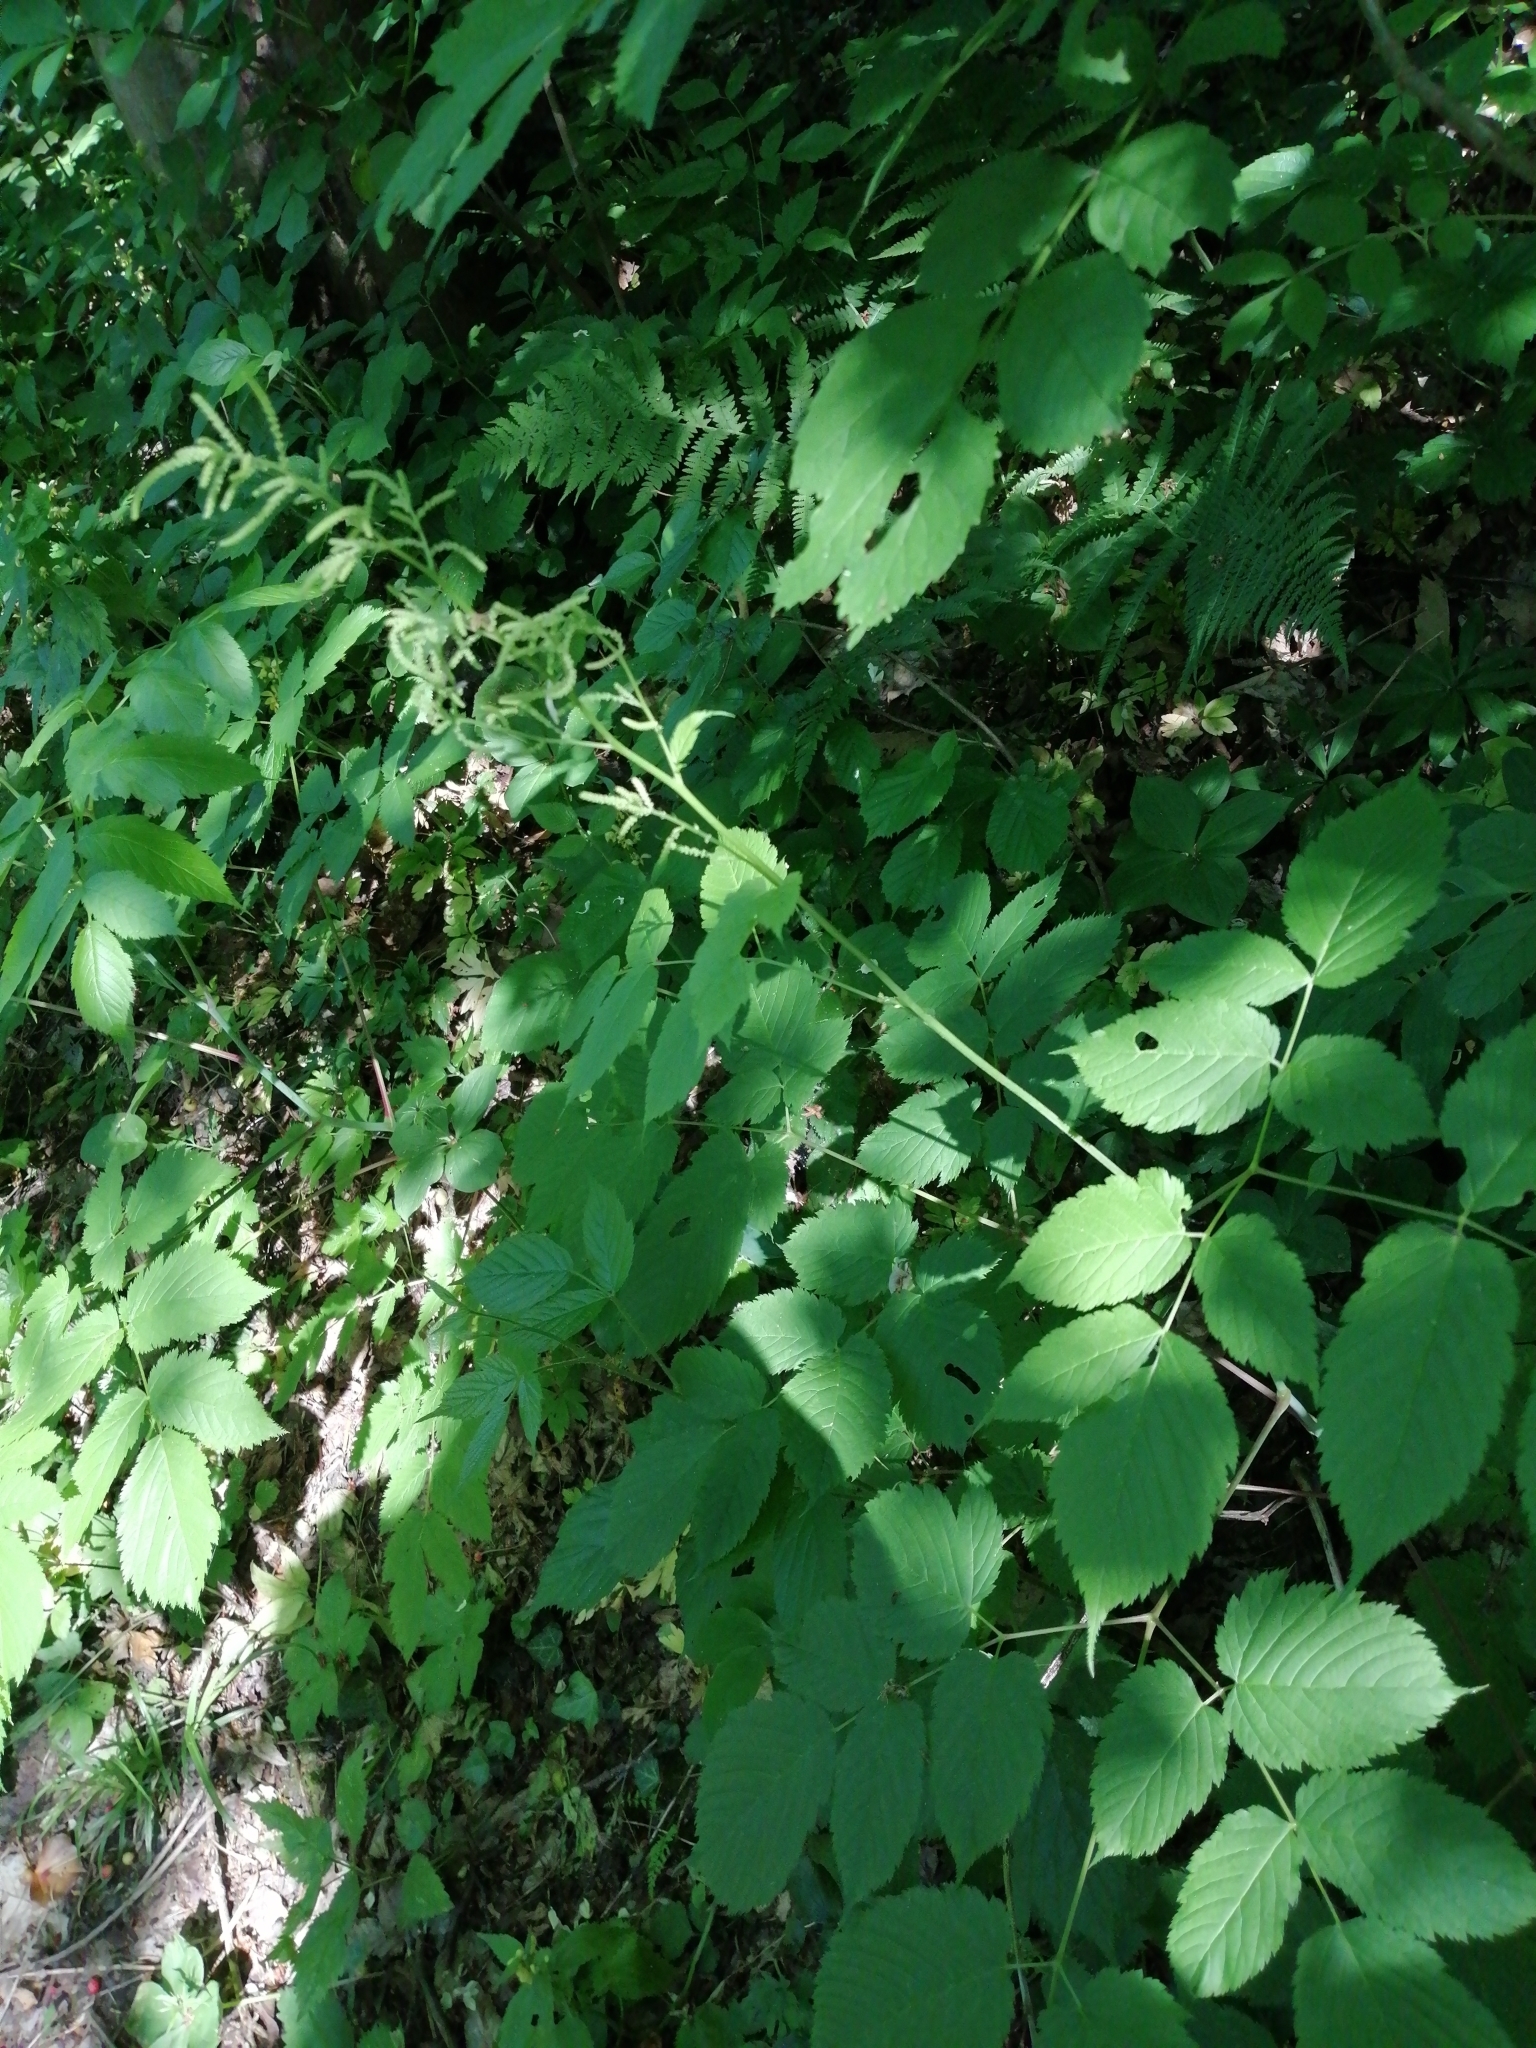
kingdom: Plantae
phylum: Tracheophyta
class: Magnoliopsida
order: Rosales
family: Rosaceae
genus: Aruncus
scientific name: Aruncus dioicus
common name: Buck's-beard
